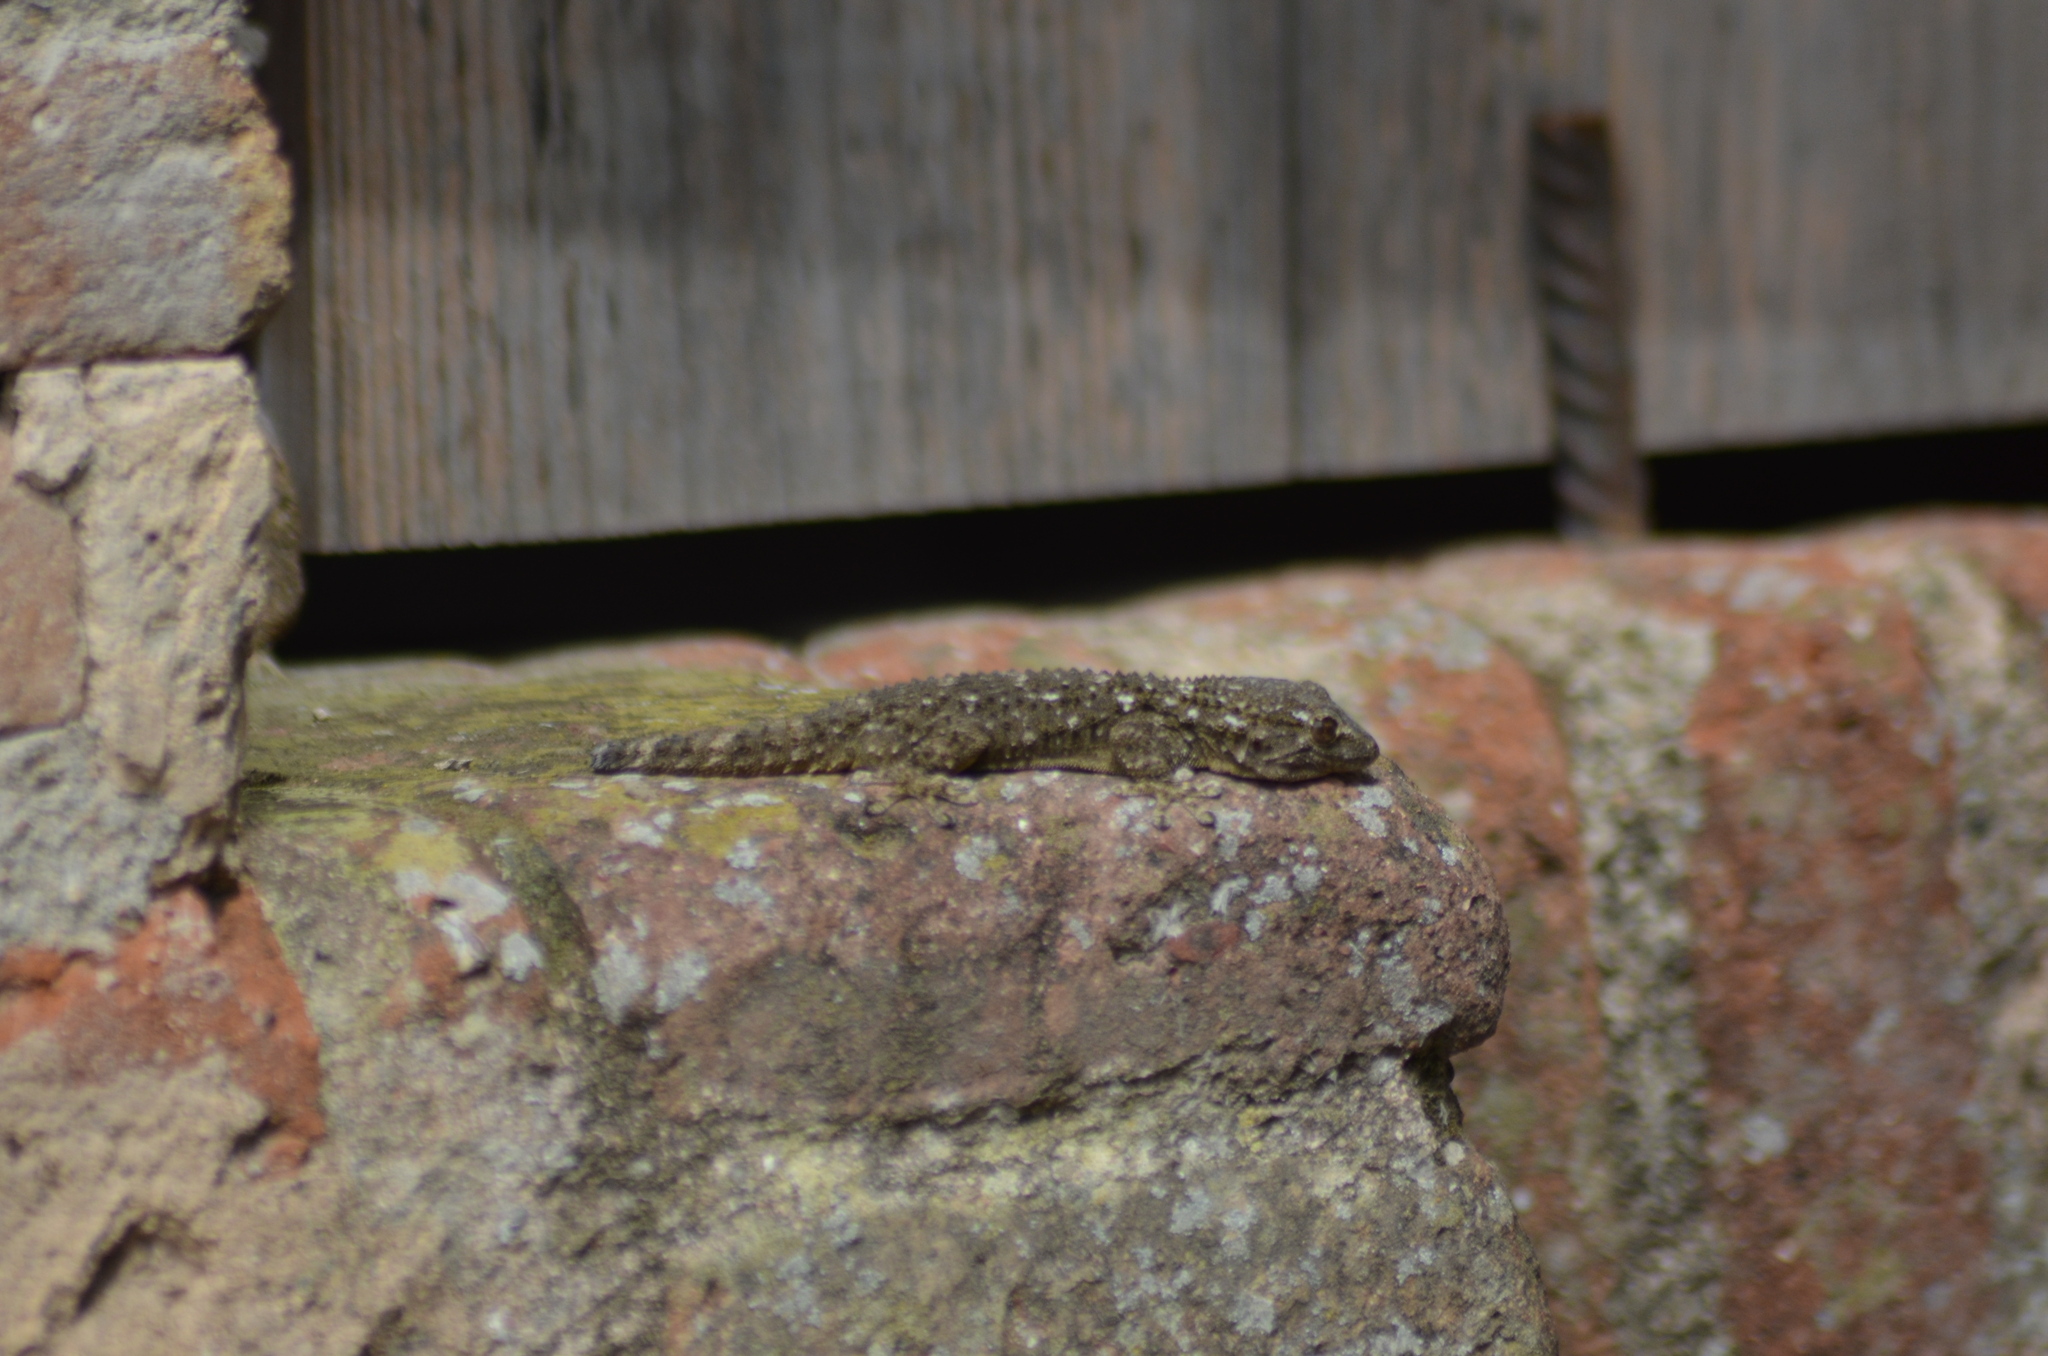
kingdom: Animalia
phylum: Chordata
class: Squamata
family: Phyllodactylidae
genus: Tarentola
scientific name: Tarentola mauritanica
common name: Moorish gecko
